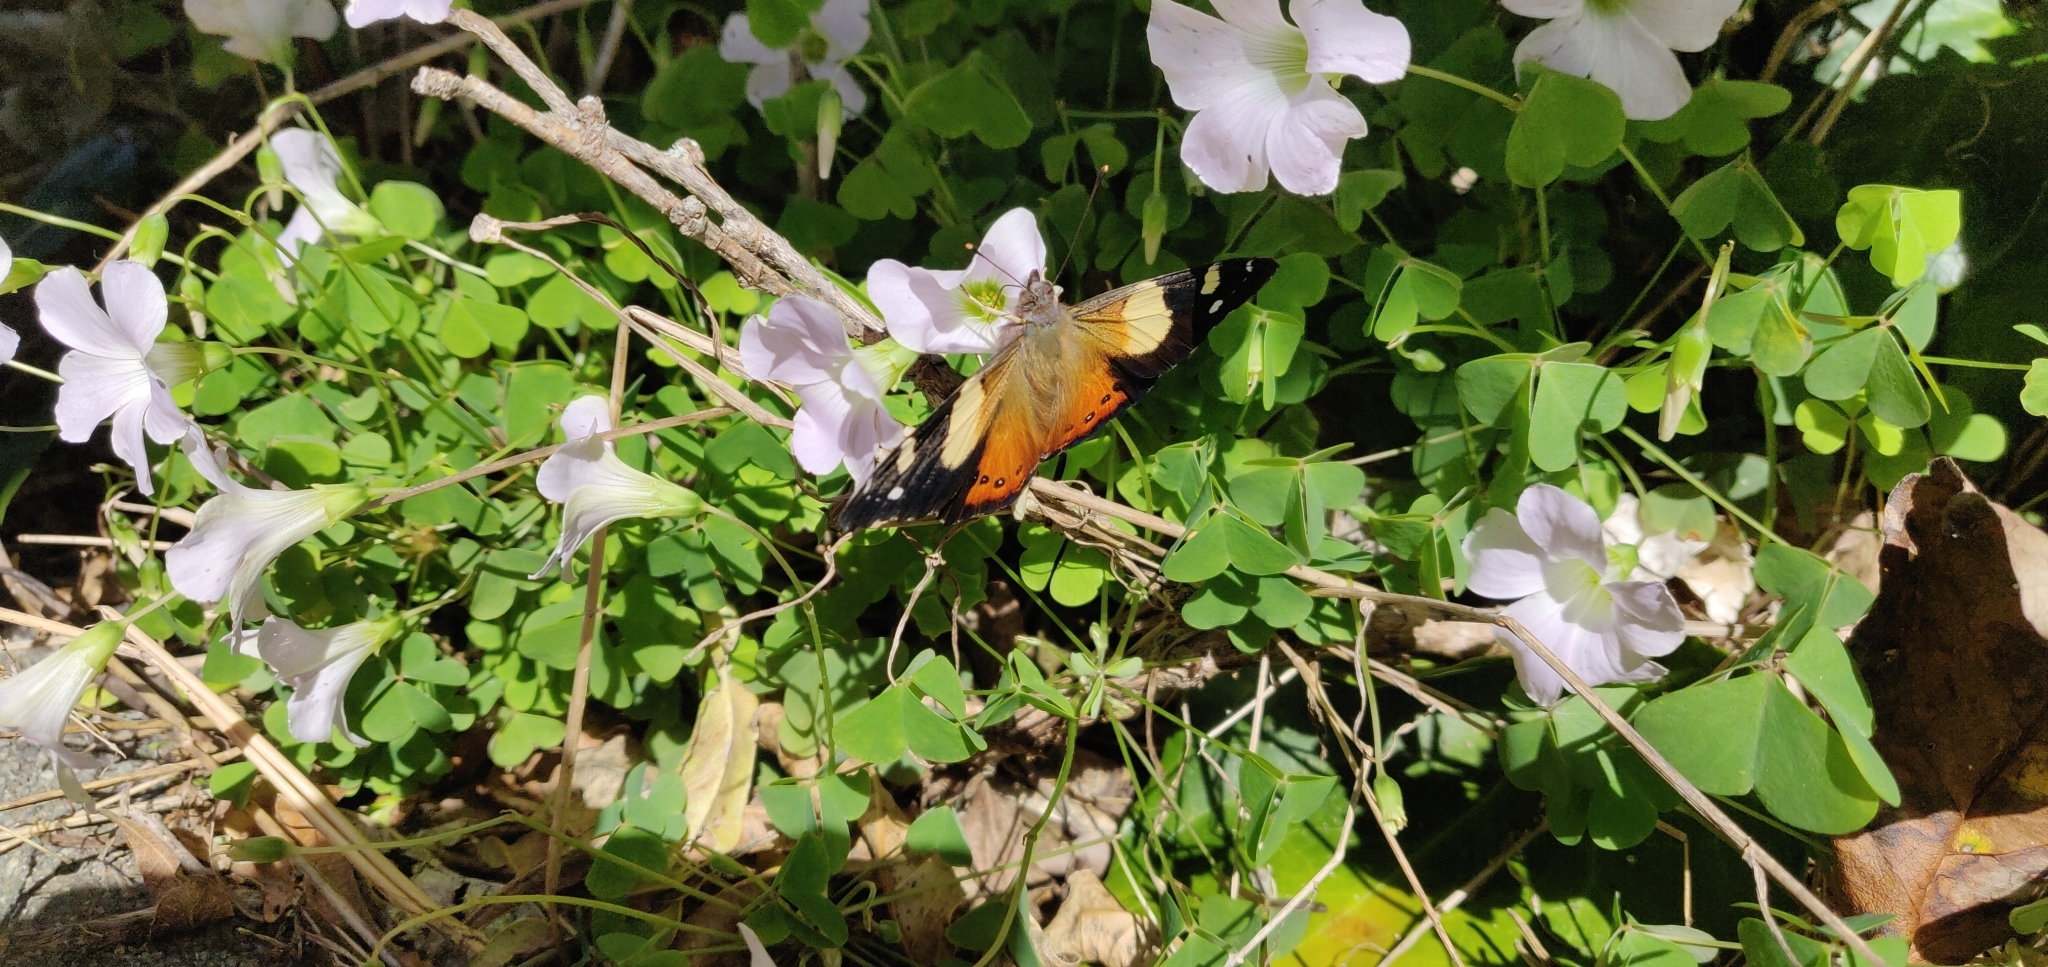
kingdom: Animalia
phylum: Arthropoda
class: Insecta
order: Lepidoptera
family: Nymphalidae
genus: Vanessa
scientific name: Vanessa itea
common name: Yellow admiral
